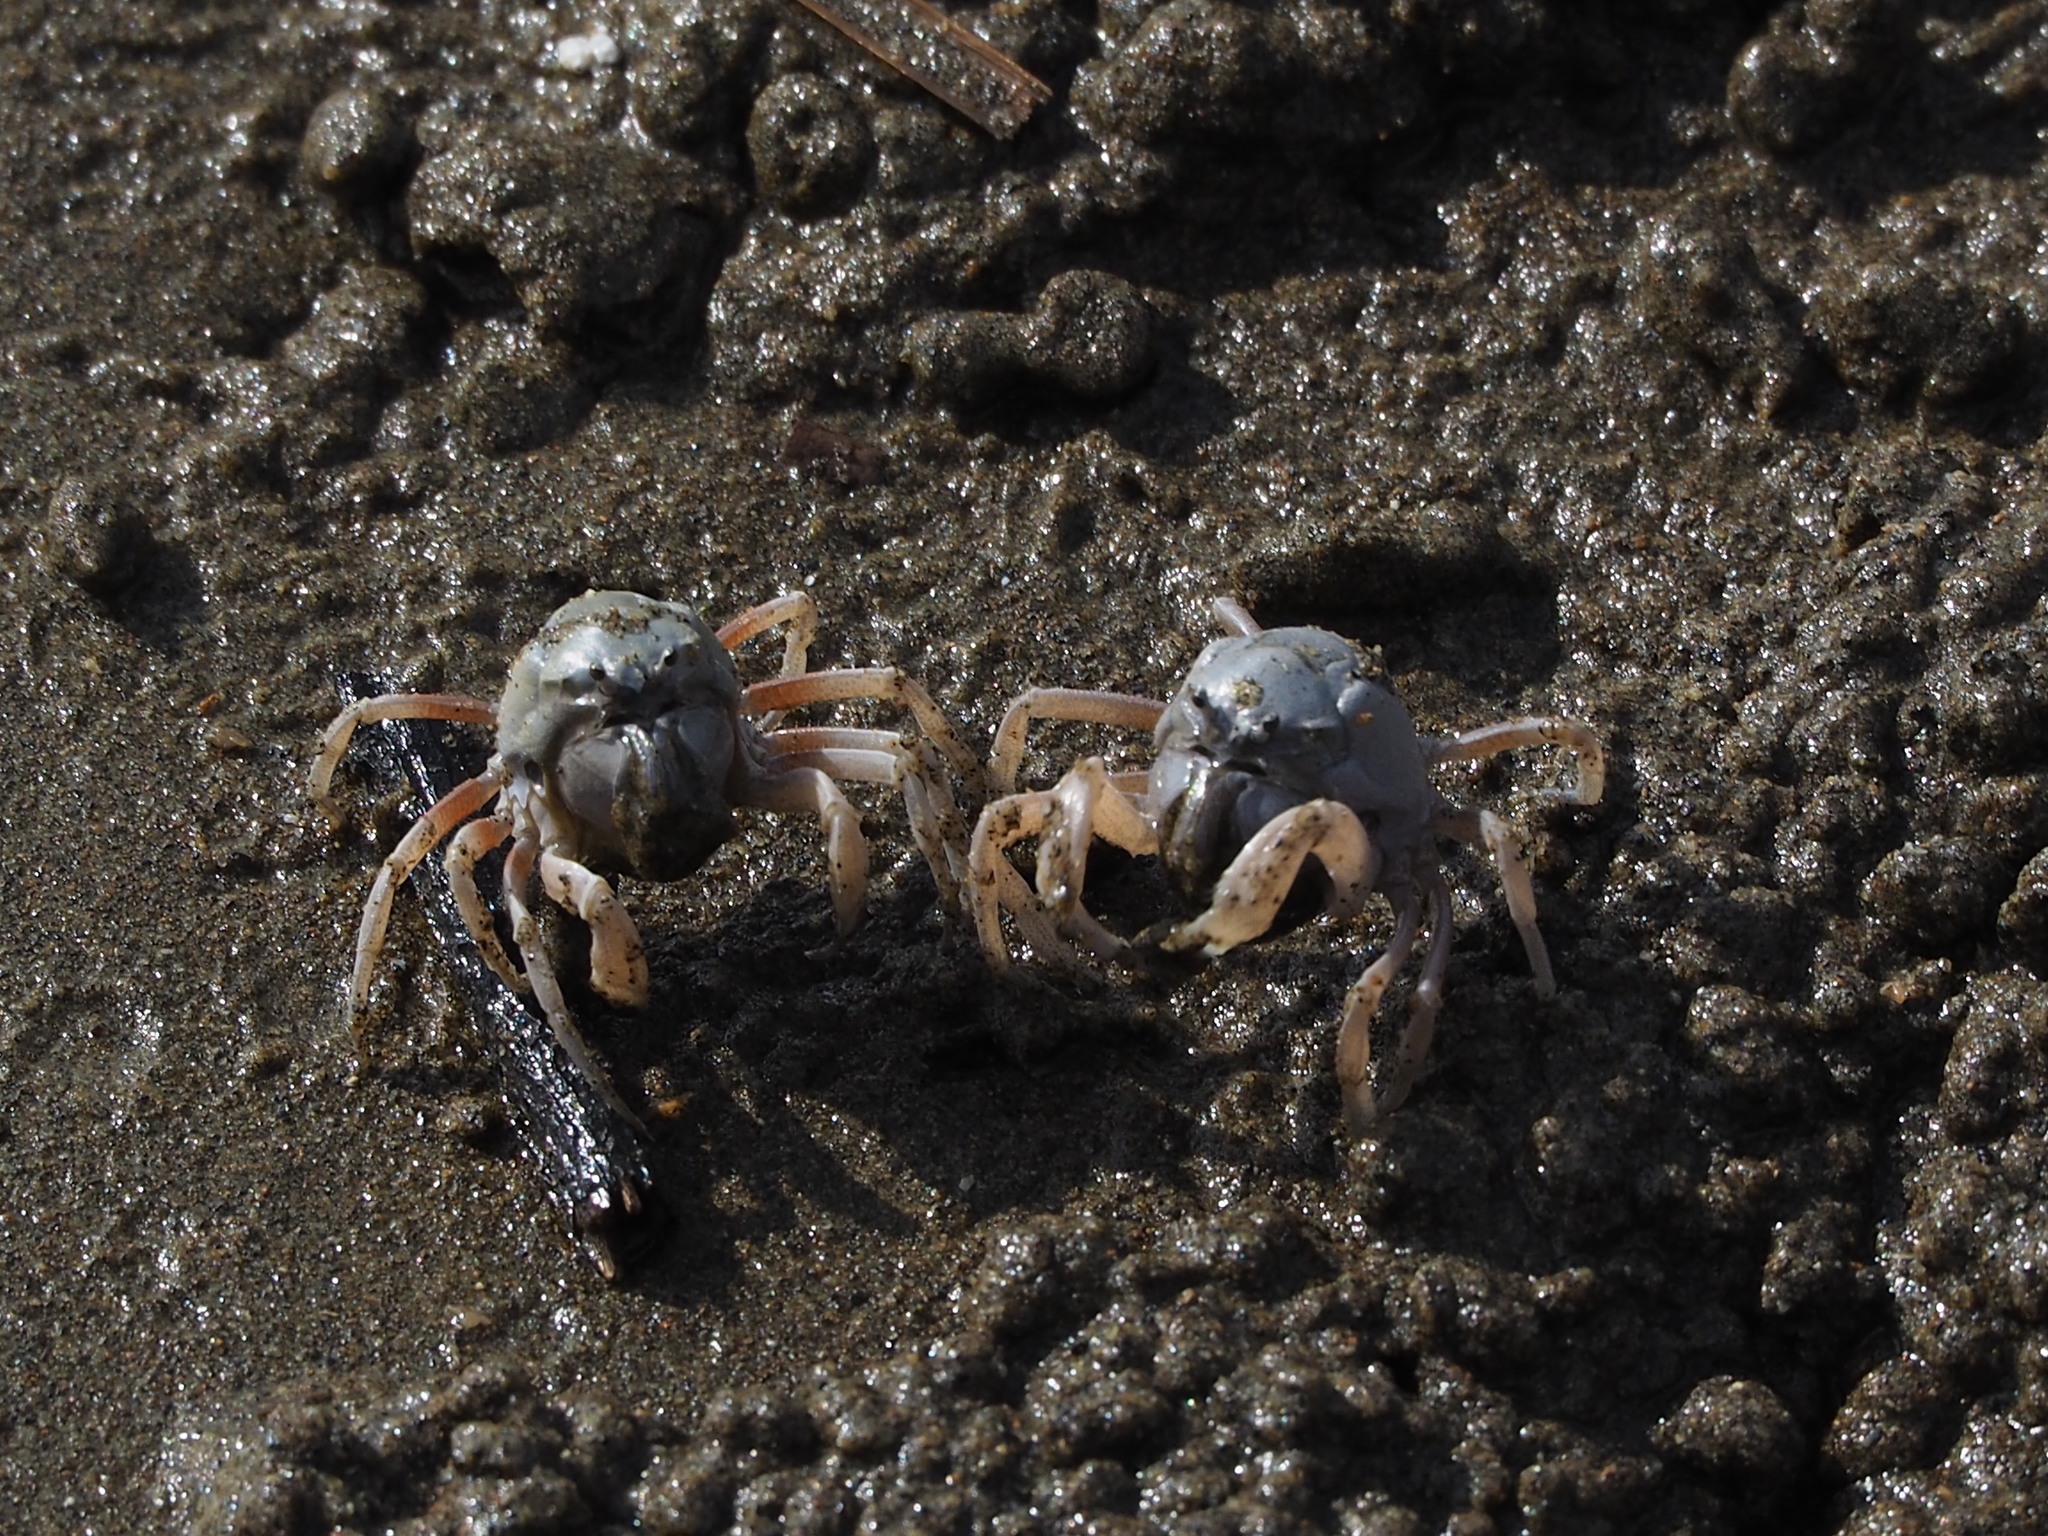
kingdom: Animalia
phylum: Arthropoda
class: Malacostraca
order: Decapoda
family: Mictyridae
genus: Mictyris
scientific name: Mictyris brevidactylus
